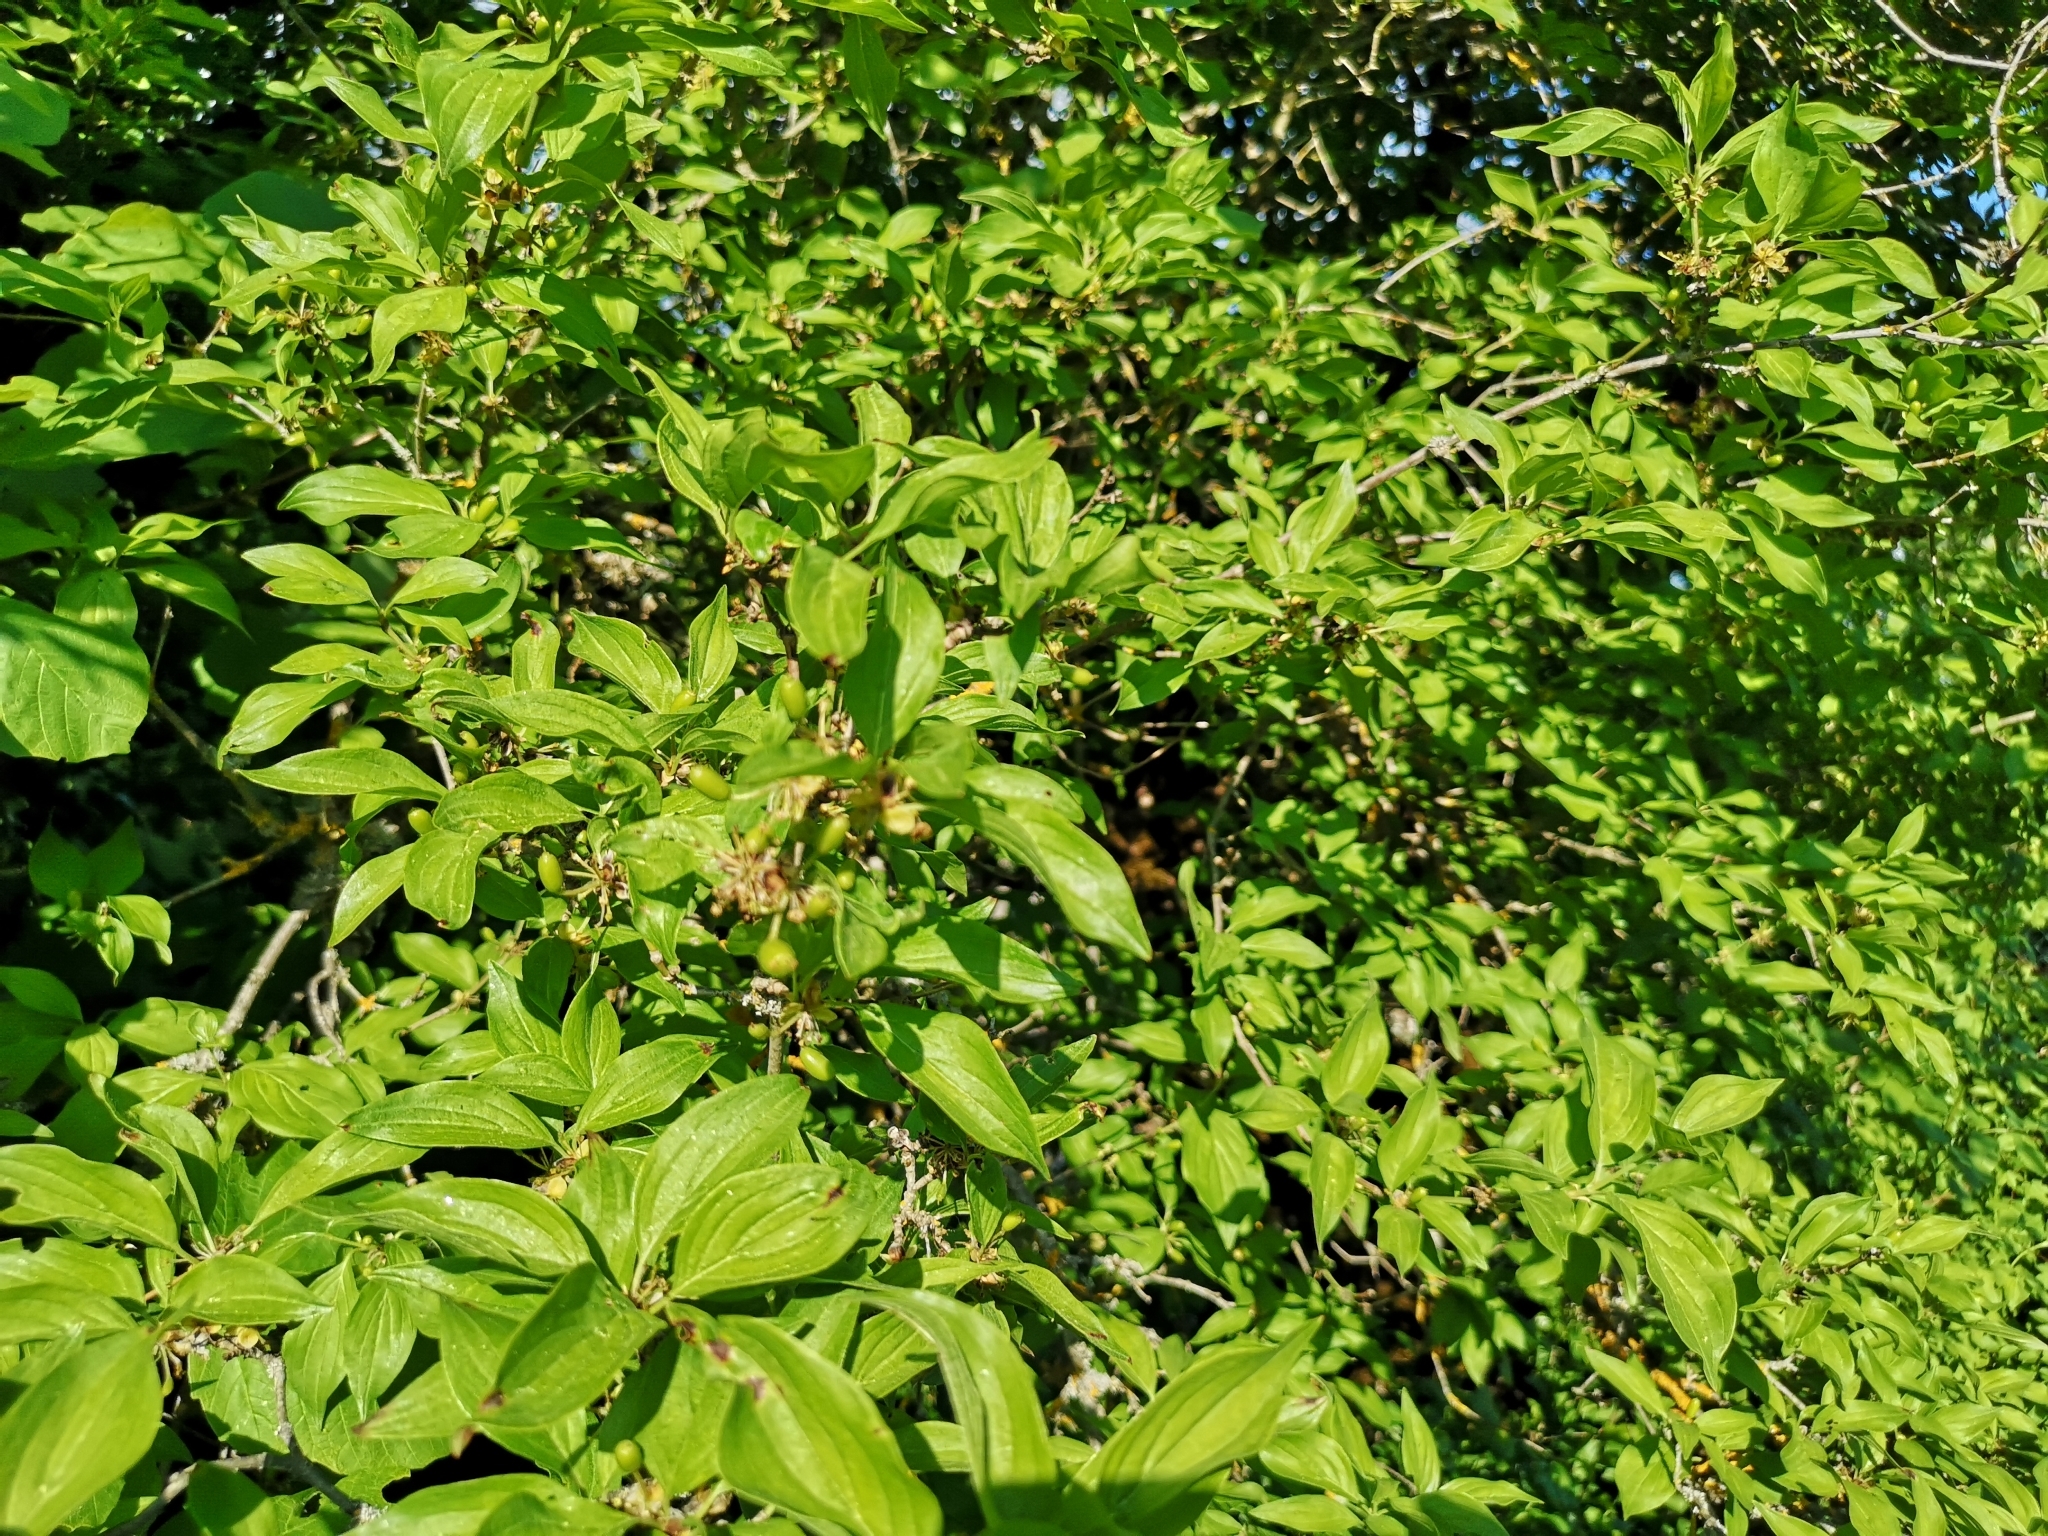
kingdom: Plantae
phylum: Tracheophyta
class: Magnoliopsida
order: Cornales
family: Cornaceae
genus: Cornus
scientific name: Cornus mas
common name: Cornelian-cherry
